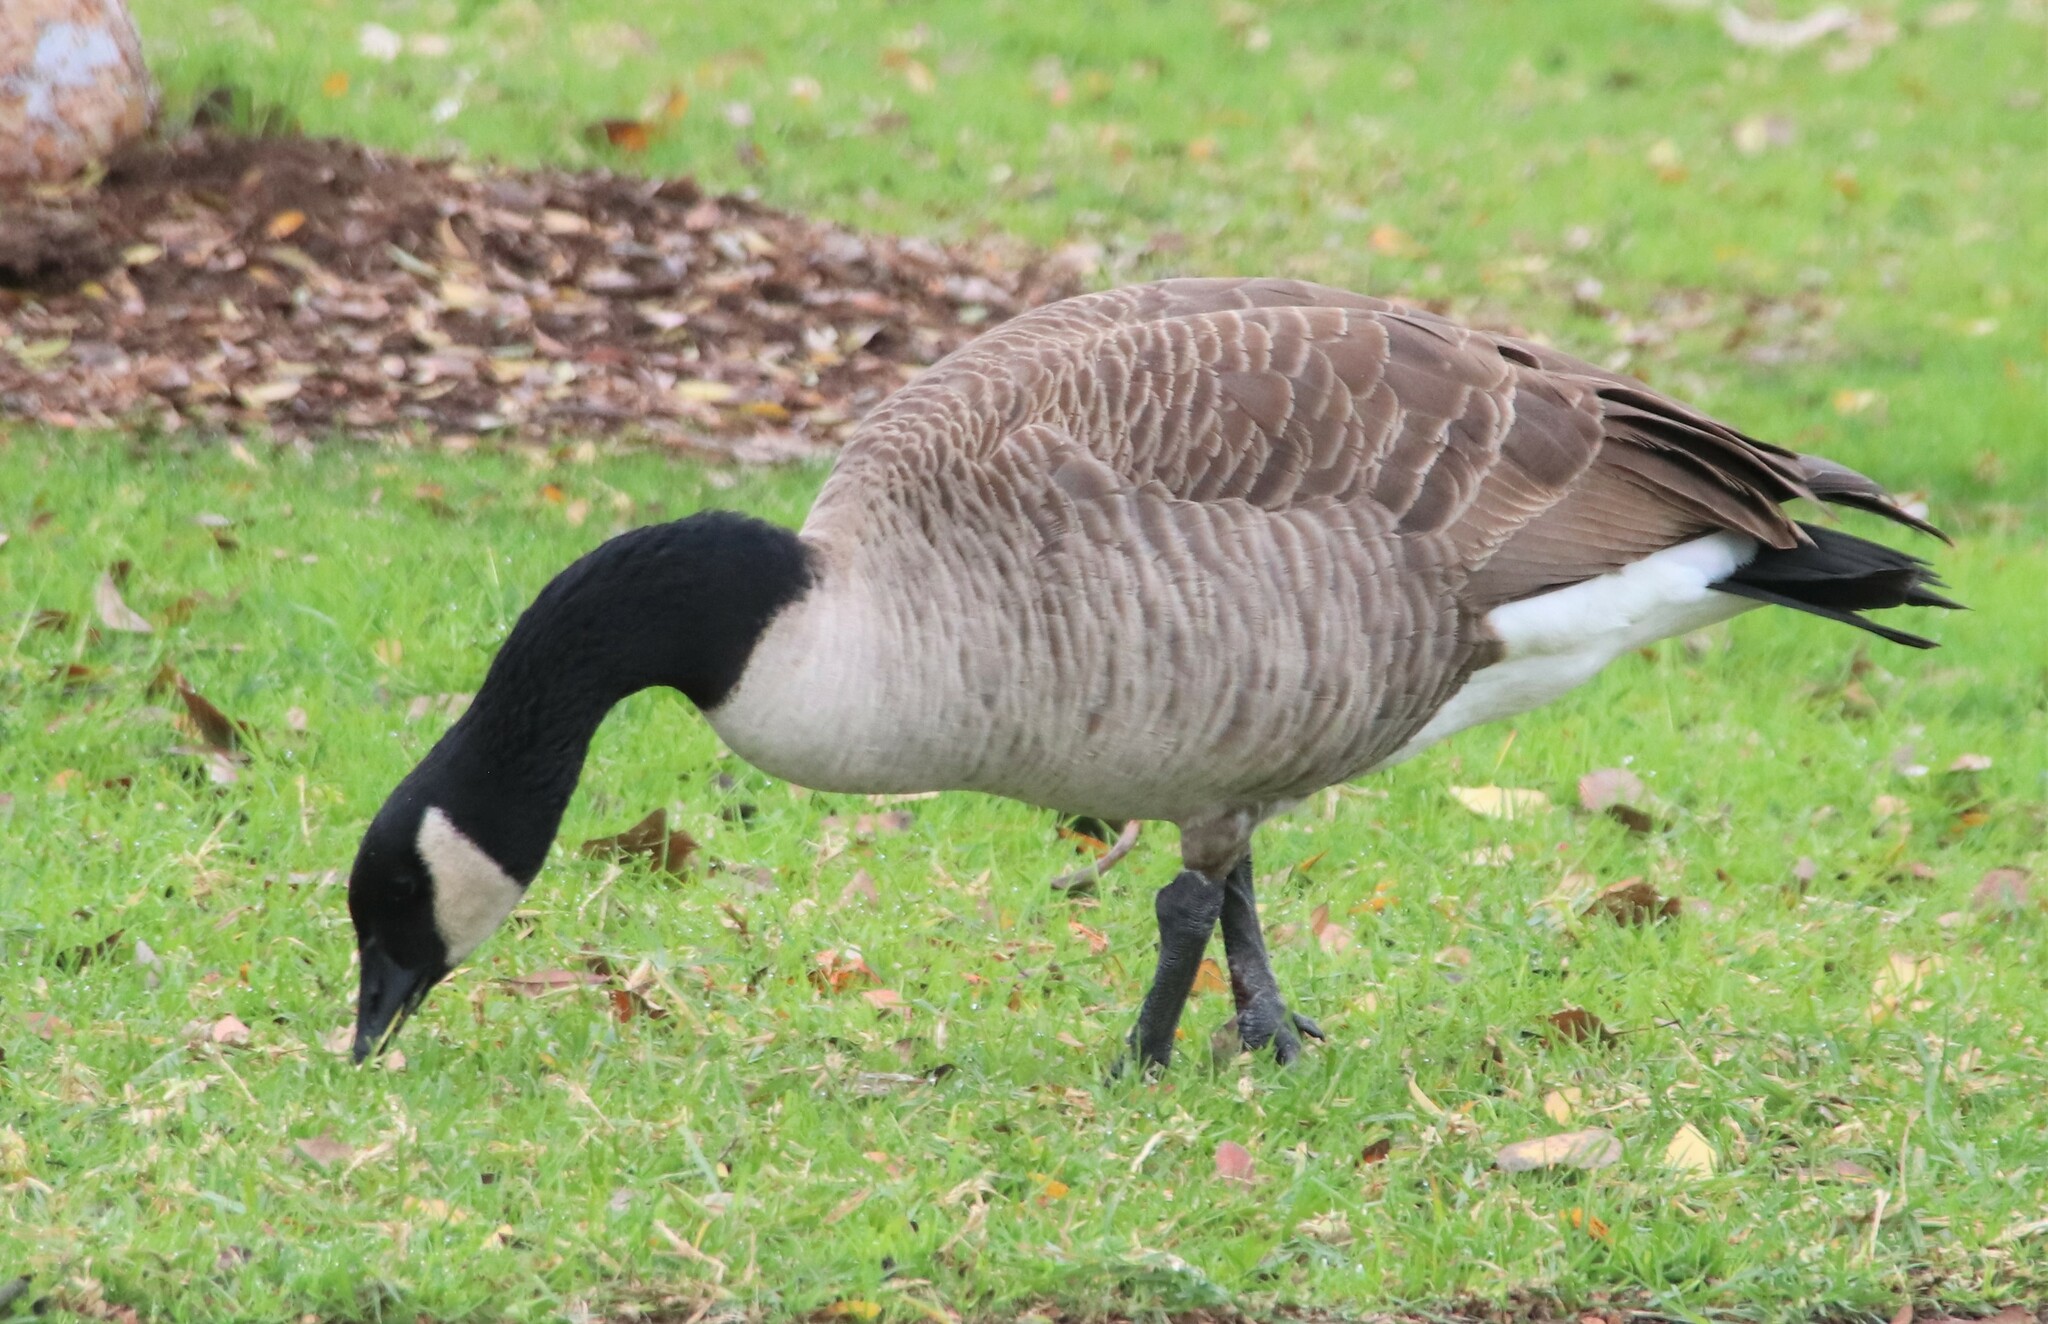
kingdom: Animalia
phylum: Chordata
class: Aves
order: Anseriformes
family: Anatidae
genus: Branta
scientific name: Branta canadensis
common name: Canada goose
